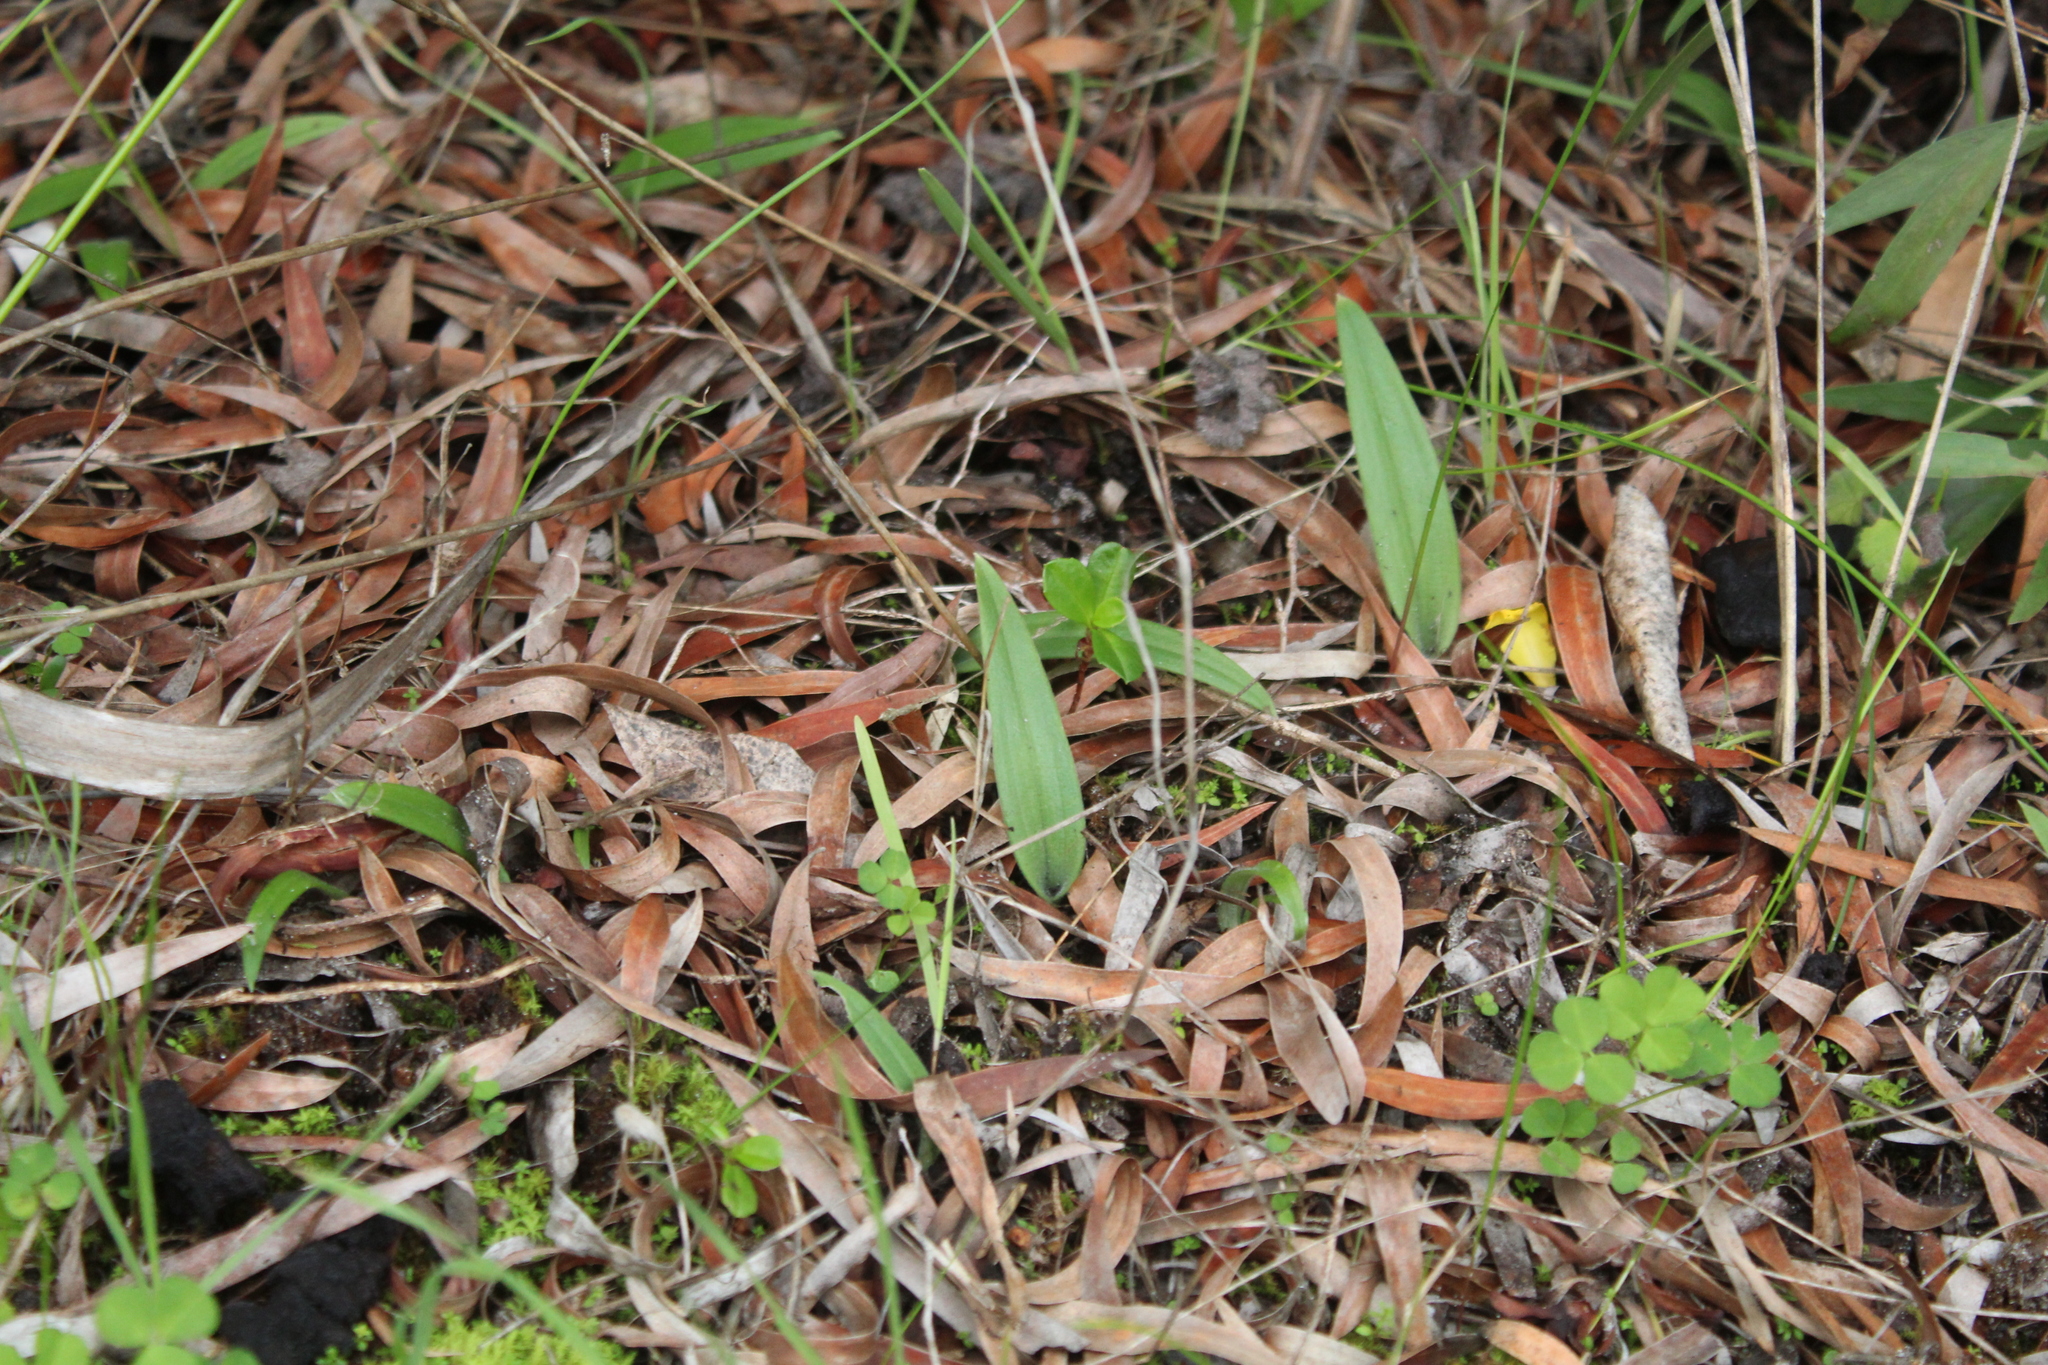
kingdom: Plantae
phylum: Tracheophyta
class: Liliopsida
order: Asparagales
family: Orchidaceae
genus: Caladenia
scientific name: Caladenia latifolia
